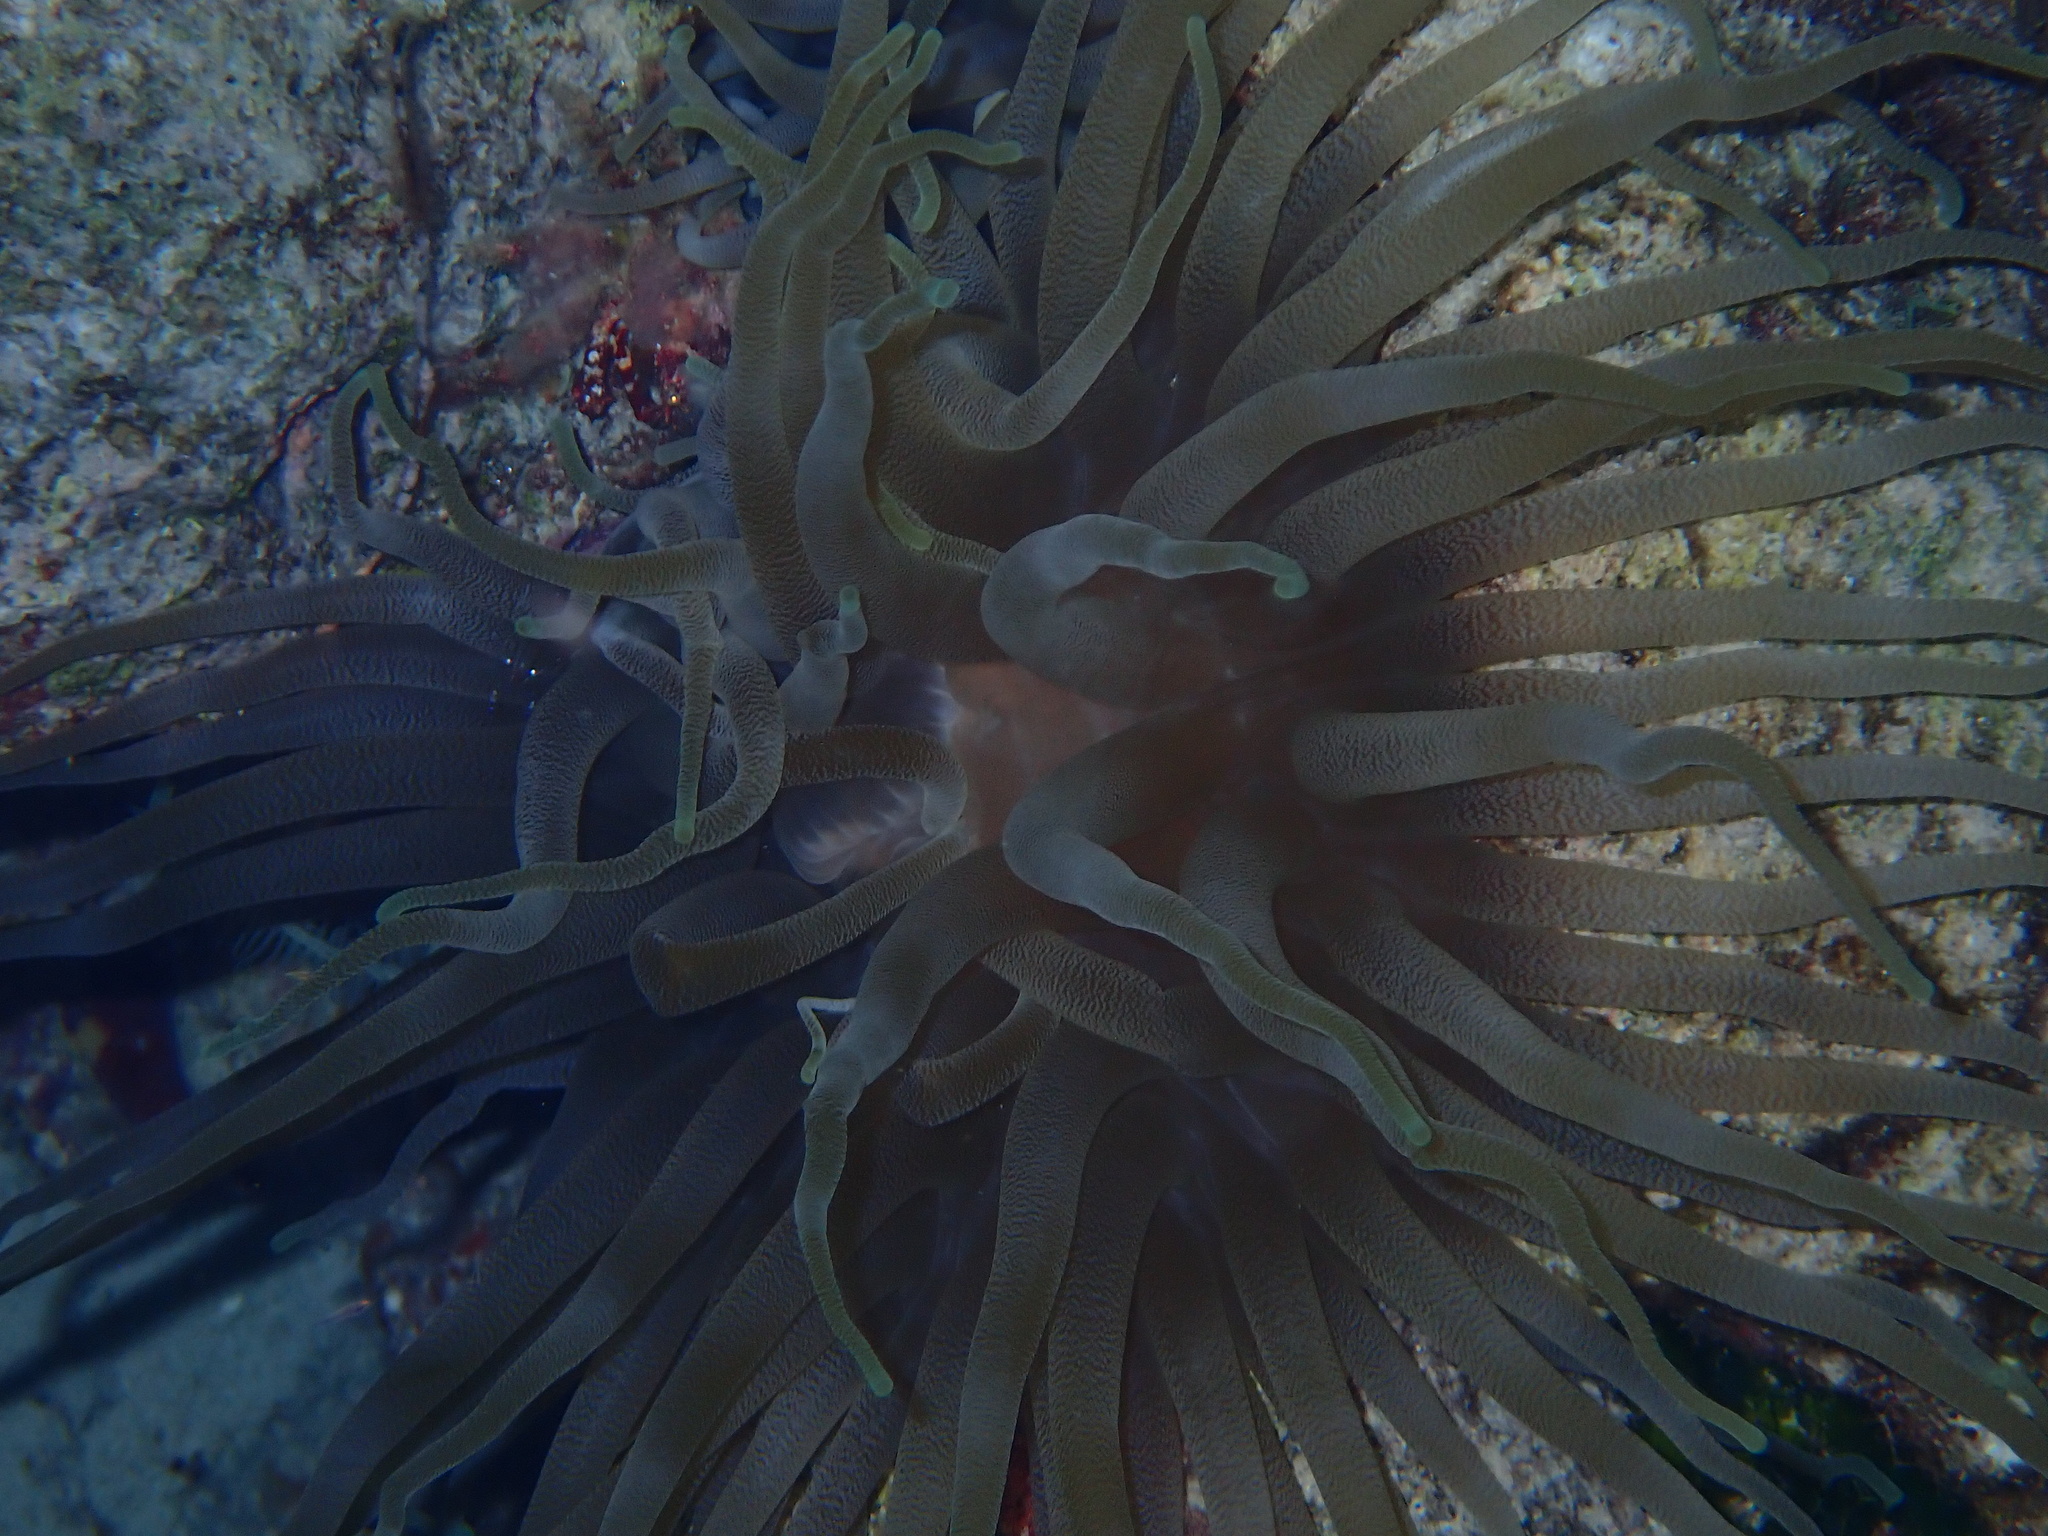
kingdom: Animalia
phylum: Cnidaria
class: Anthozoa
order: Actiniaria
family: Actiniidae
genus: Condylactis
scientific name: Condylactis gigantea
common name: Giant caribbean anemone
